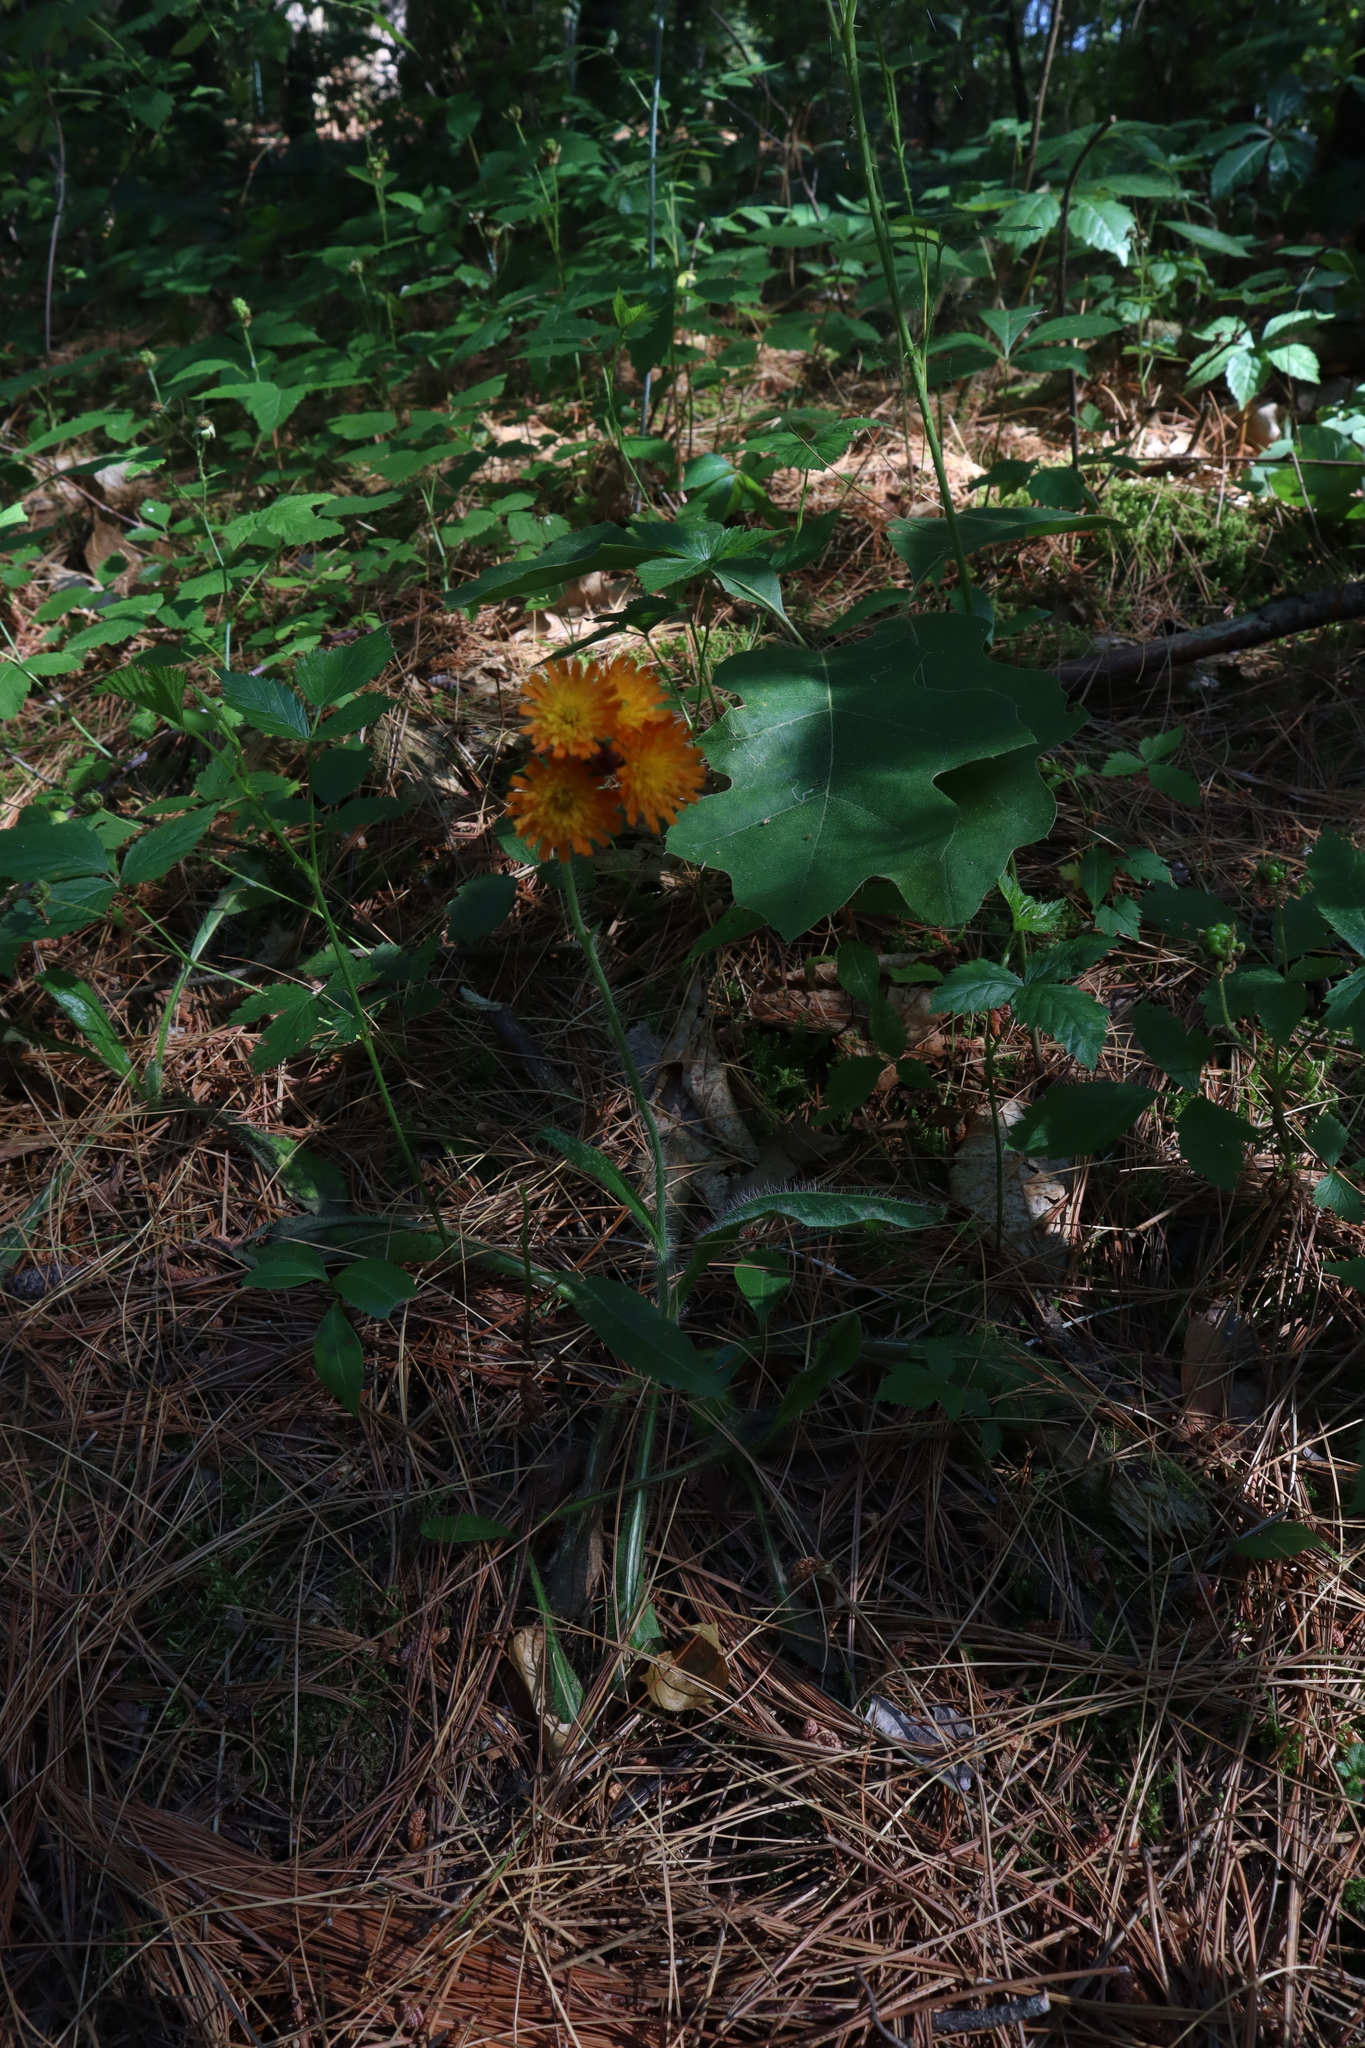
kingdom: Plantae
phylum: Tracheophyta
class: Magnoliopsida
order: Asterales
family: Asteraceae
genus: Pilosella
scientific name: Pilosella aurantiaca
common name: Fox-and-cubs
